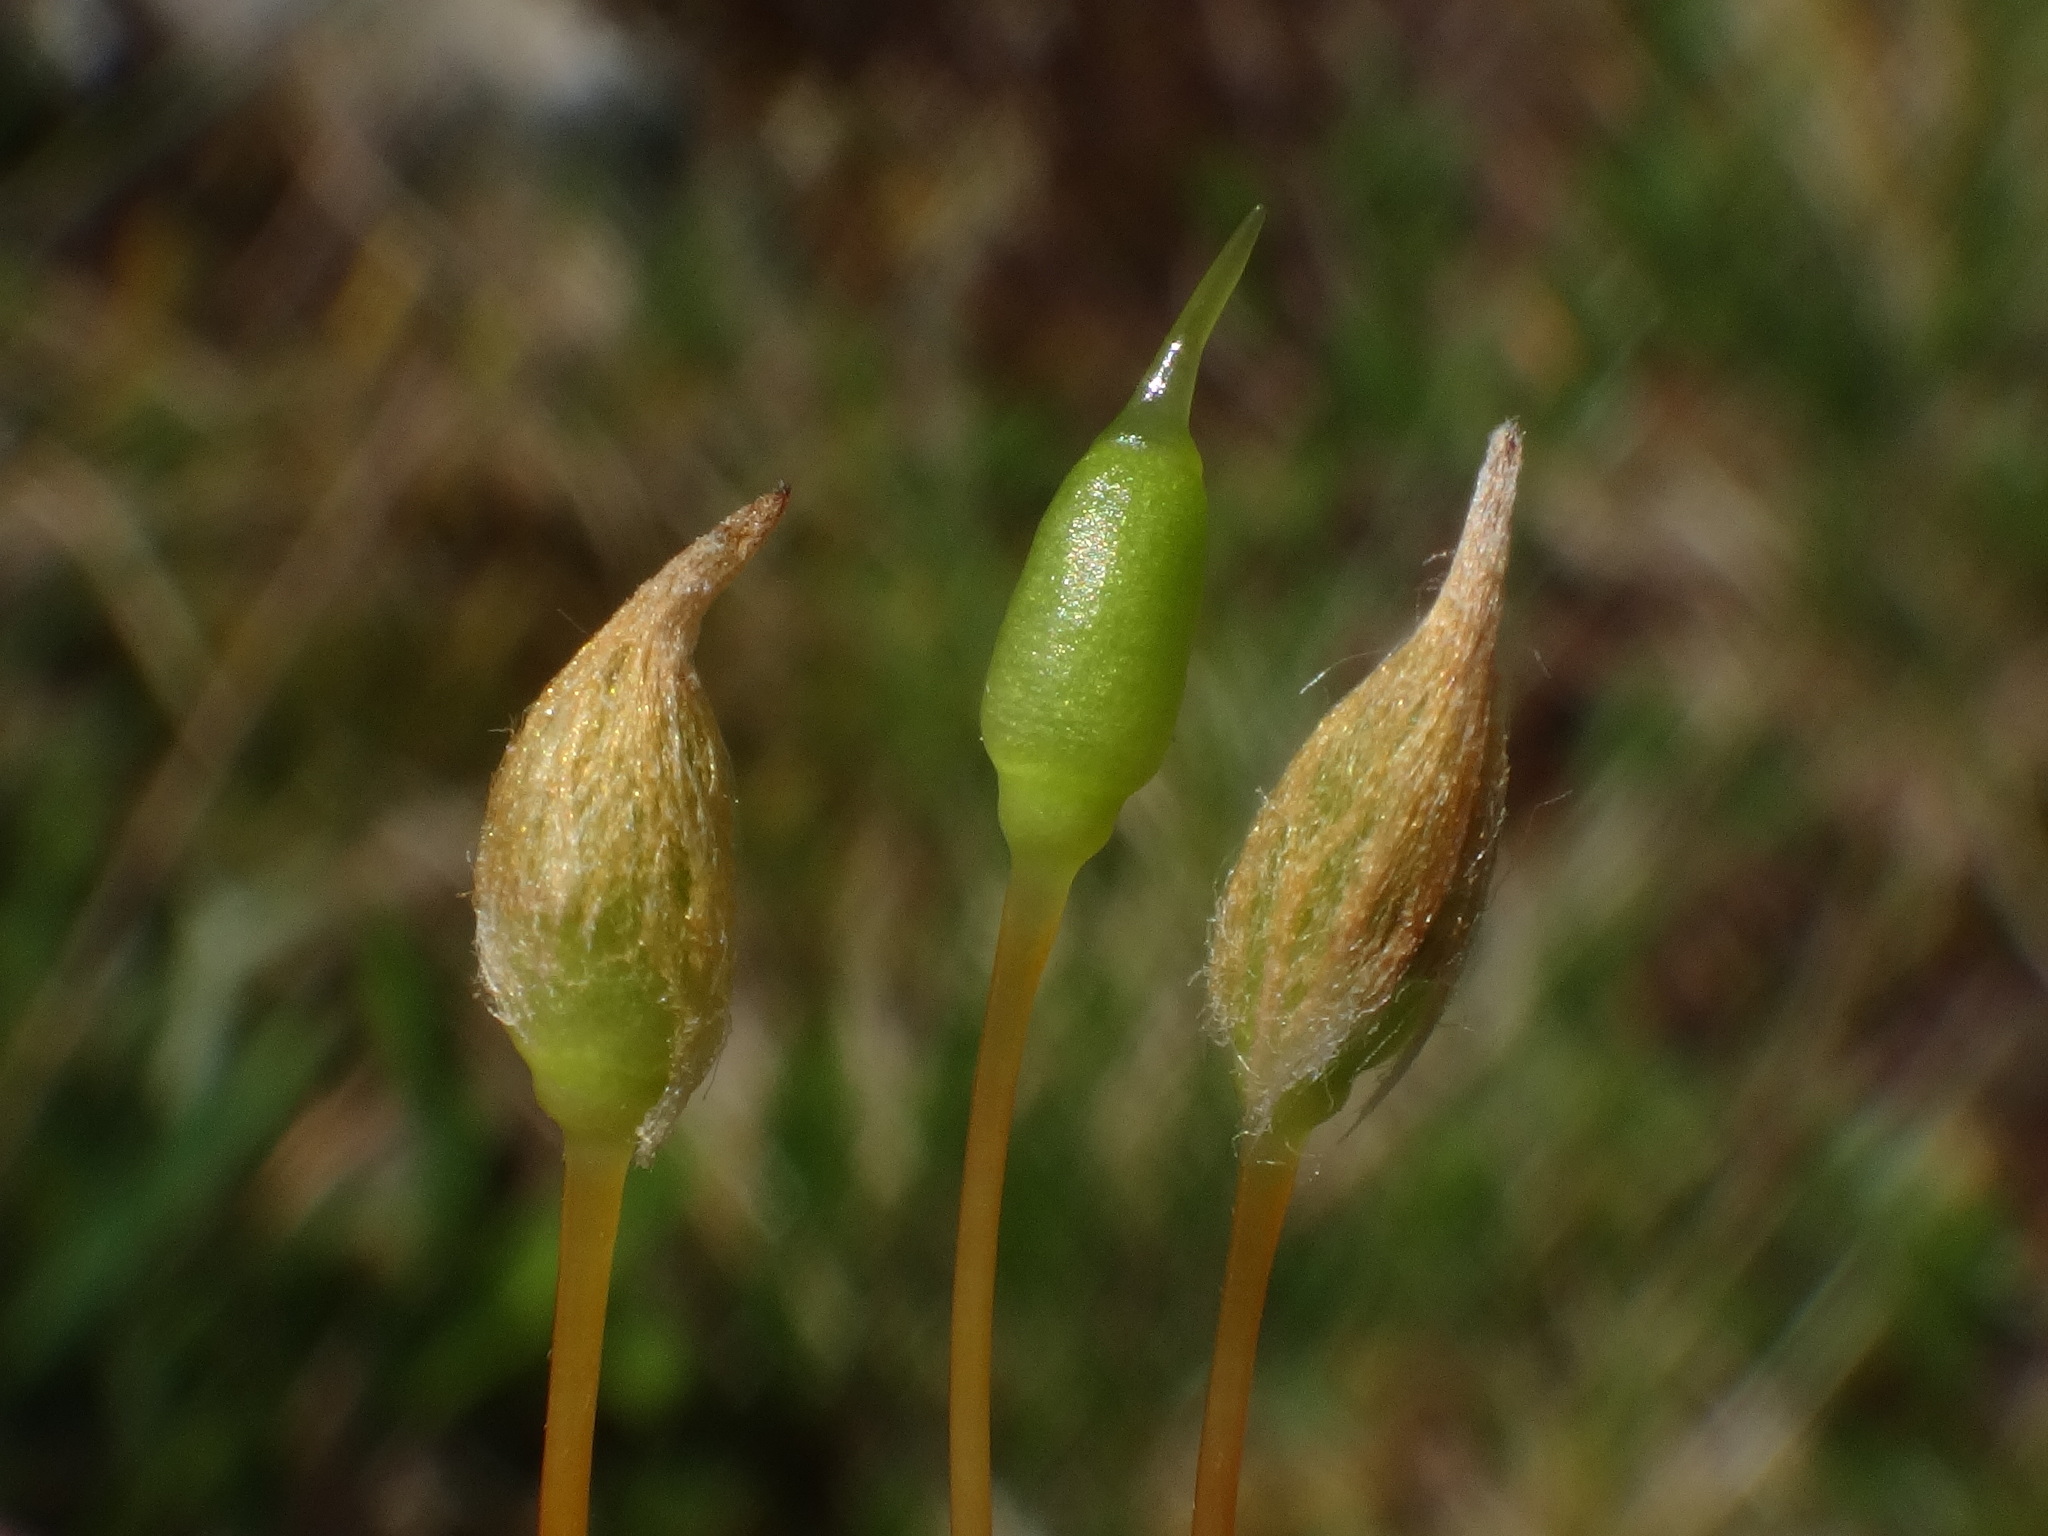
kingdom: Plantae
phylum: Bryophyta
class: Polytrichopsida
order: Polytrichales
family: Polytrichaceae
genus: Polytrichastrum
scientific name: Polytrichastrum alpinum
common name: Alpine haircap
